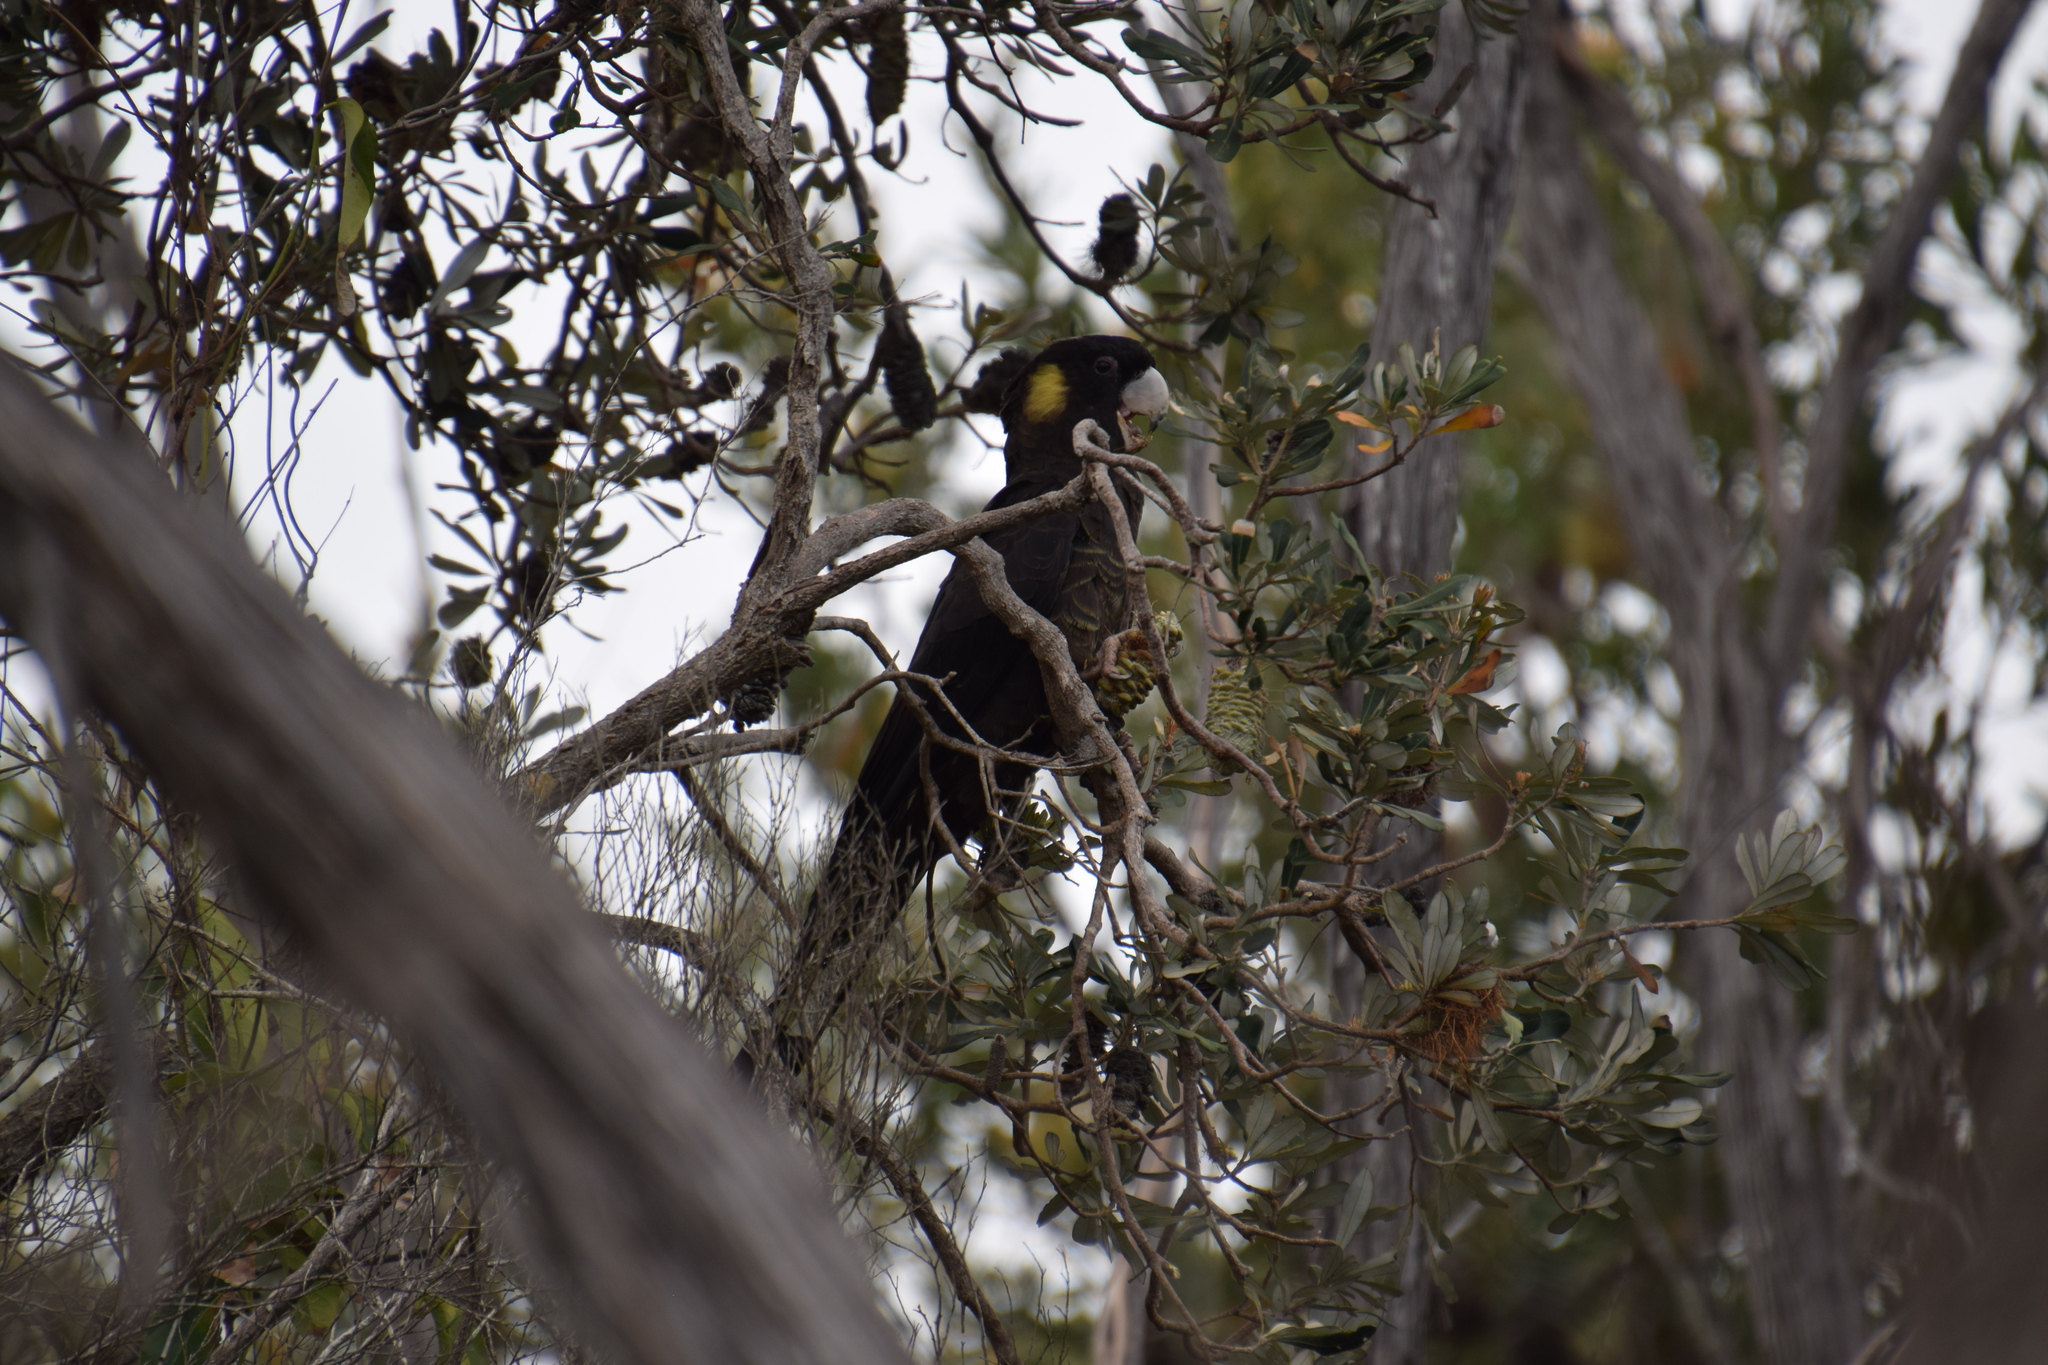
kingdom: Animalia
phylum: Chordata
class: Aves
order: Psittaciformes
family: Cacatuidae
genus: Zanda
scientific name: Zanda funerea
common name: Yellow-tailed black-cockatoo
